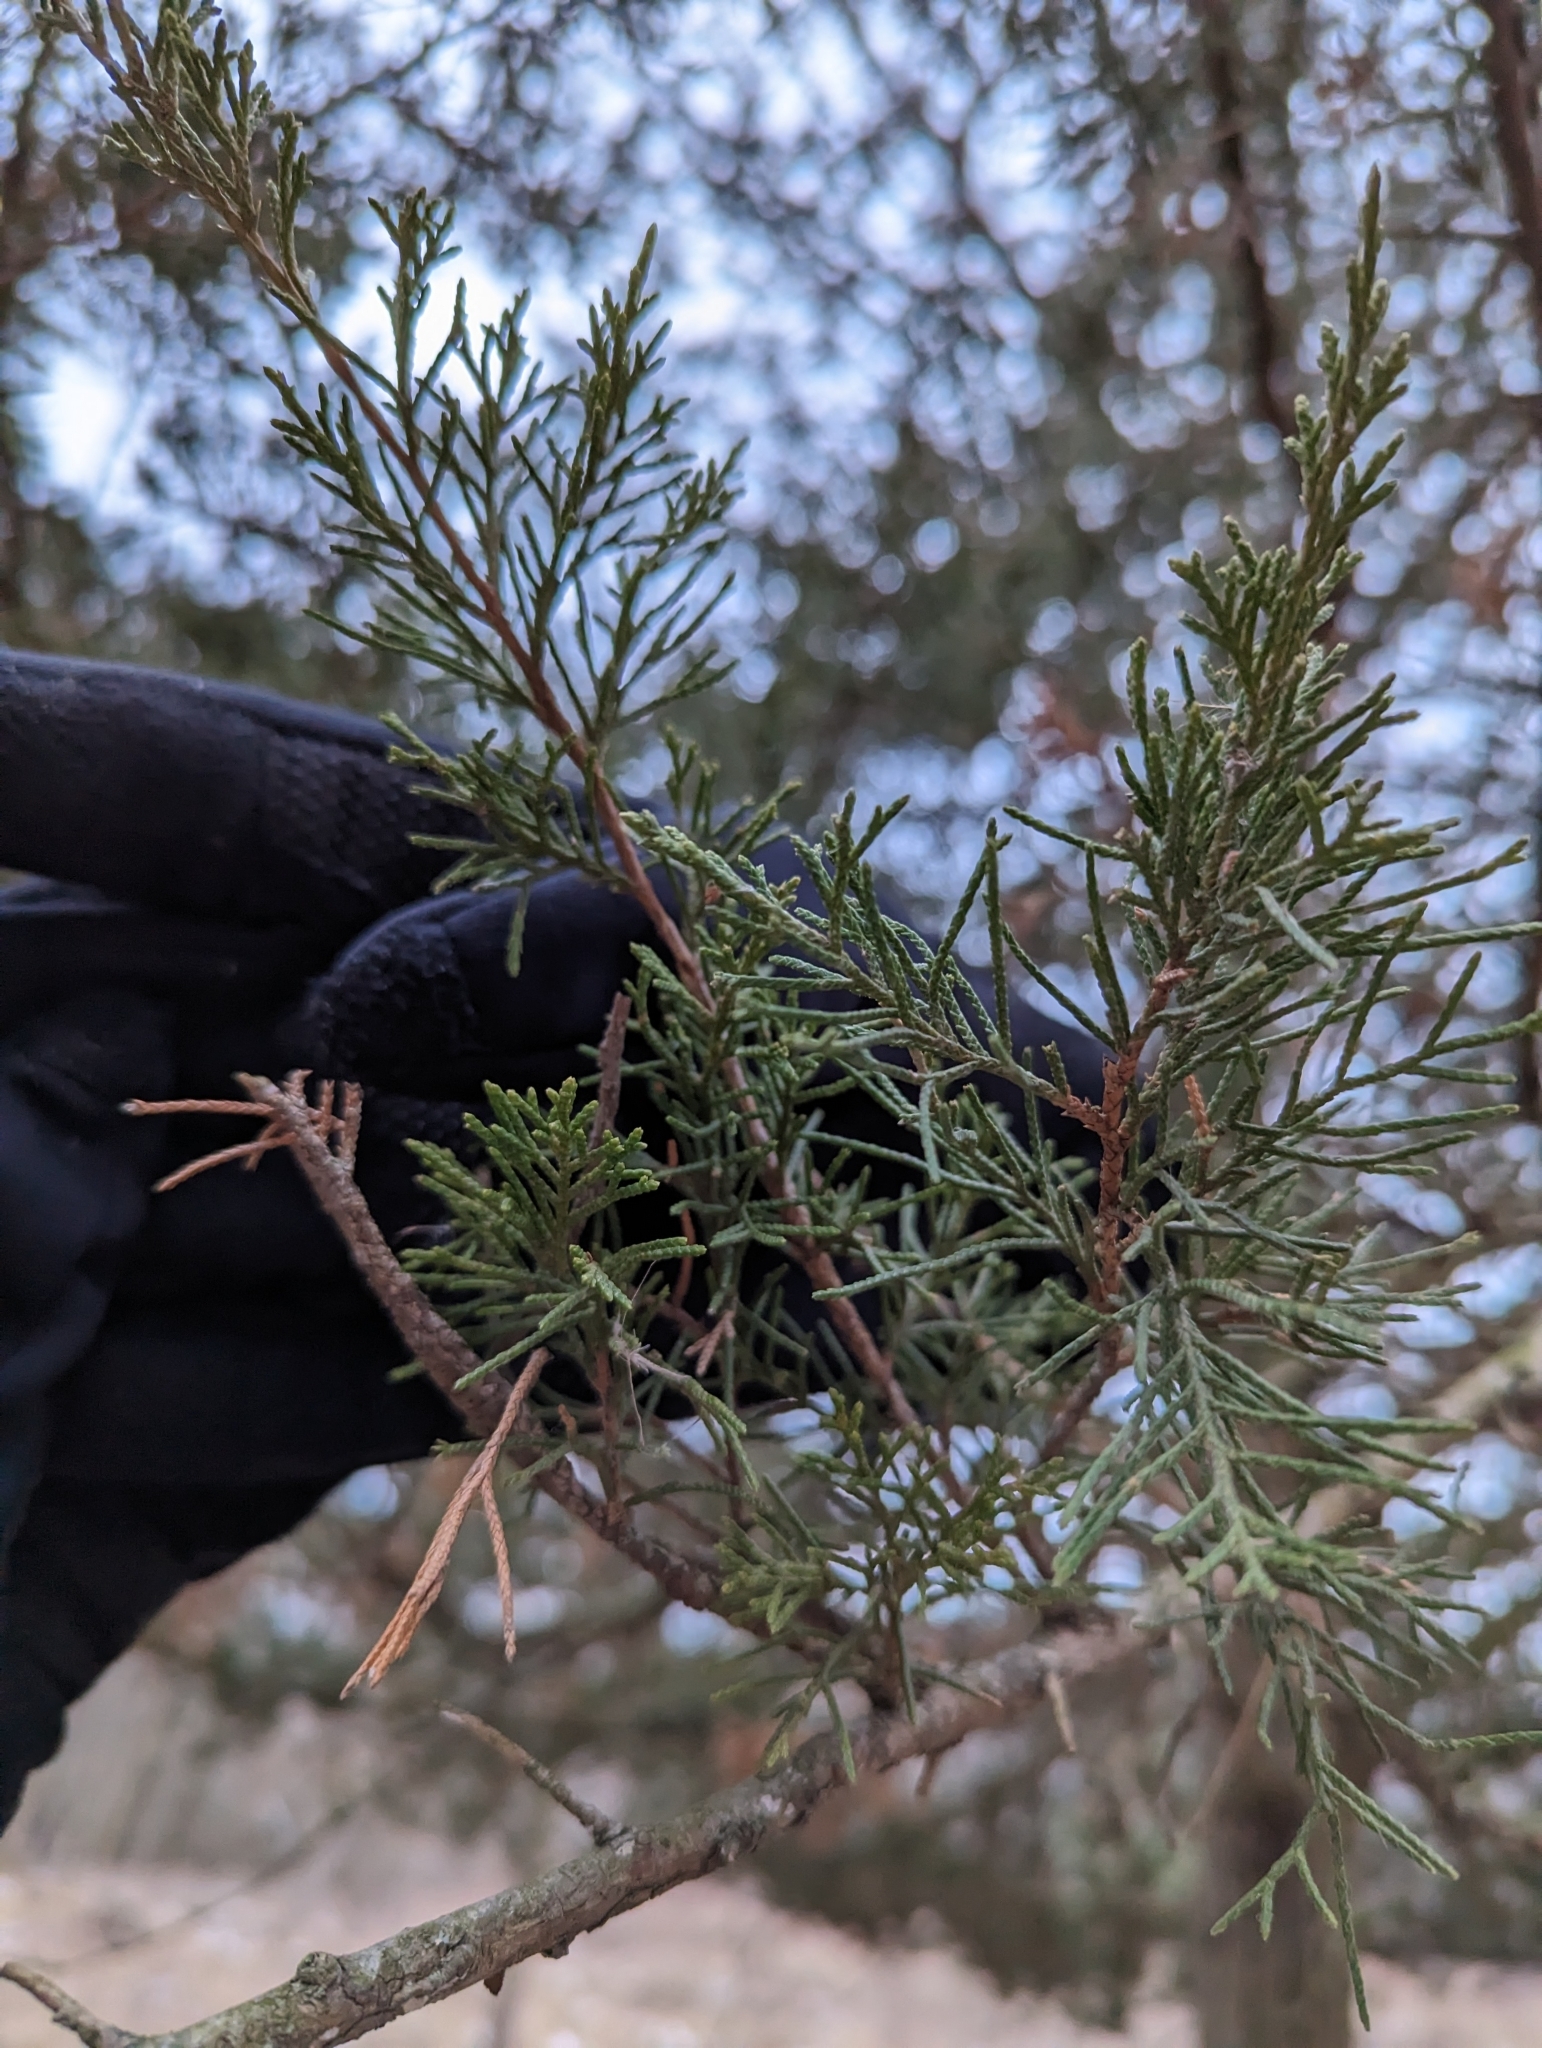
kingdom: Plantae
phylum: Tracheophyta
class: Pinopsida
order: Pinales
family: Cupressaceae
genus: Juniperus
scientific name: Juniperus virginiana
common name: Red juniper
